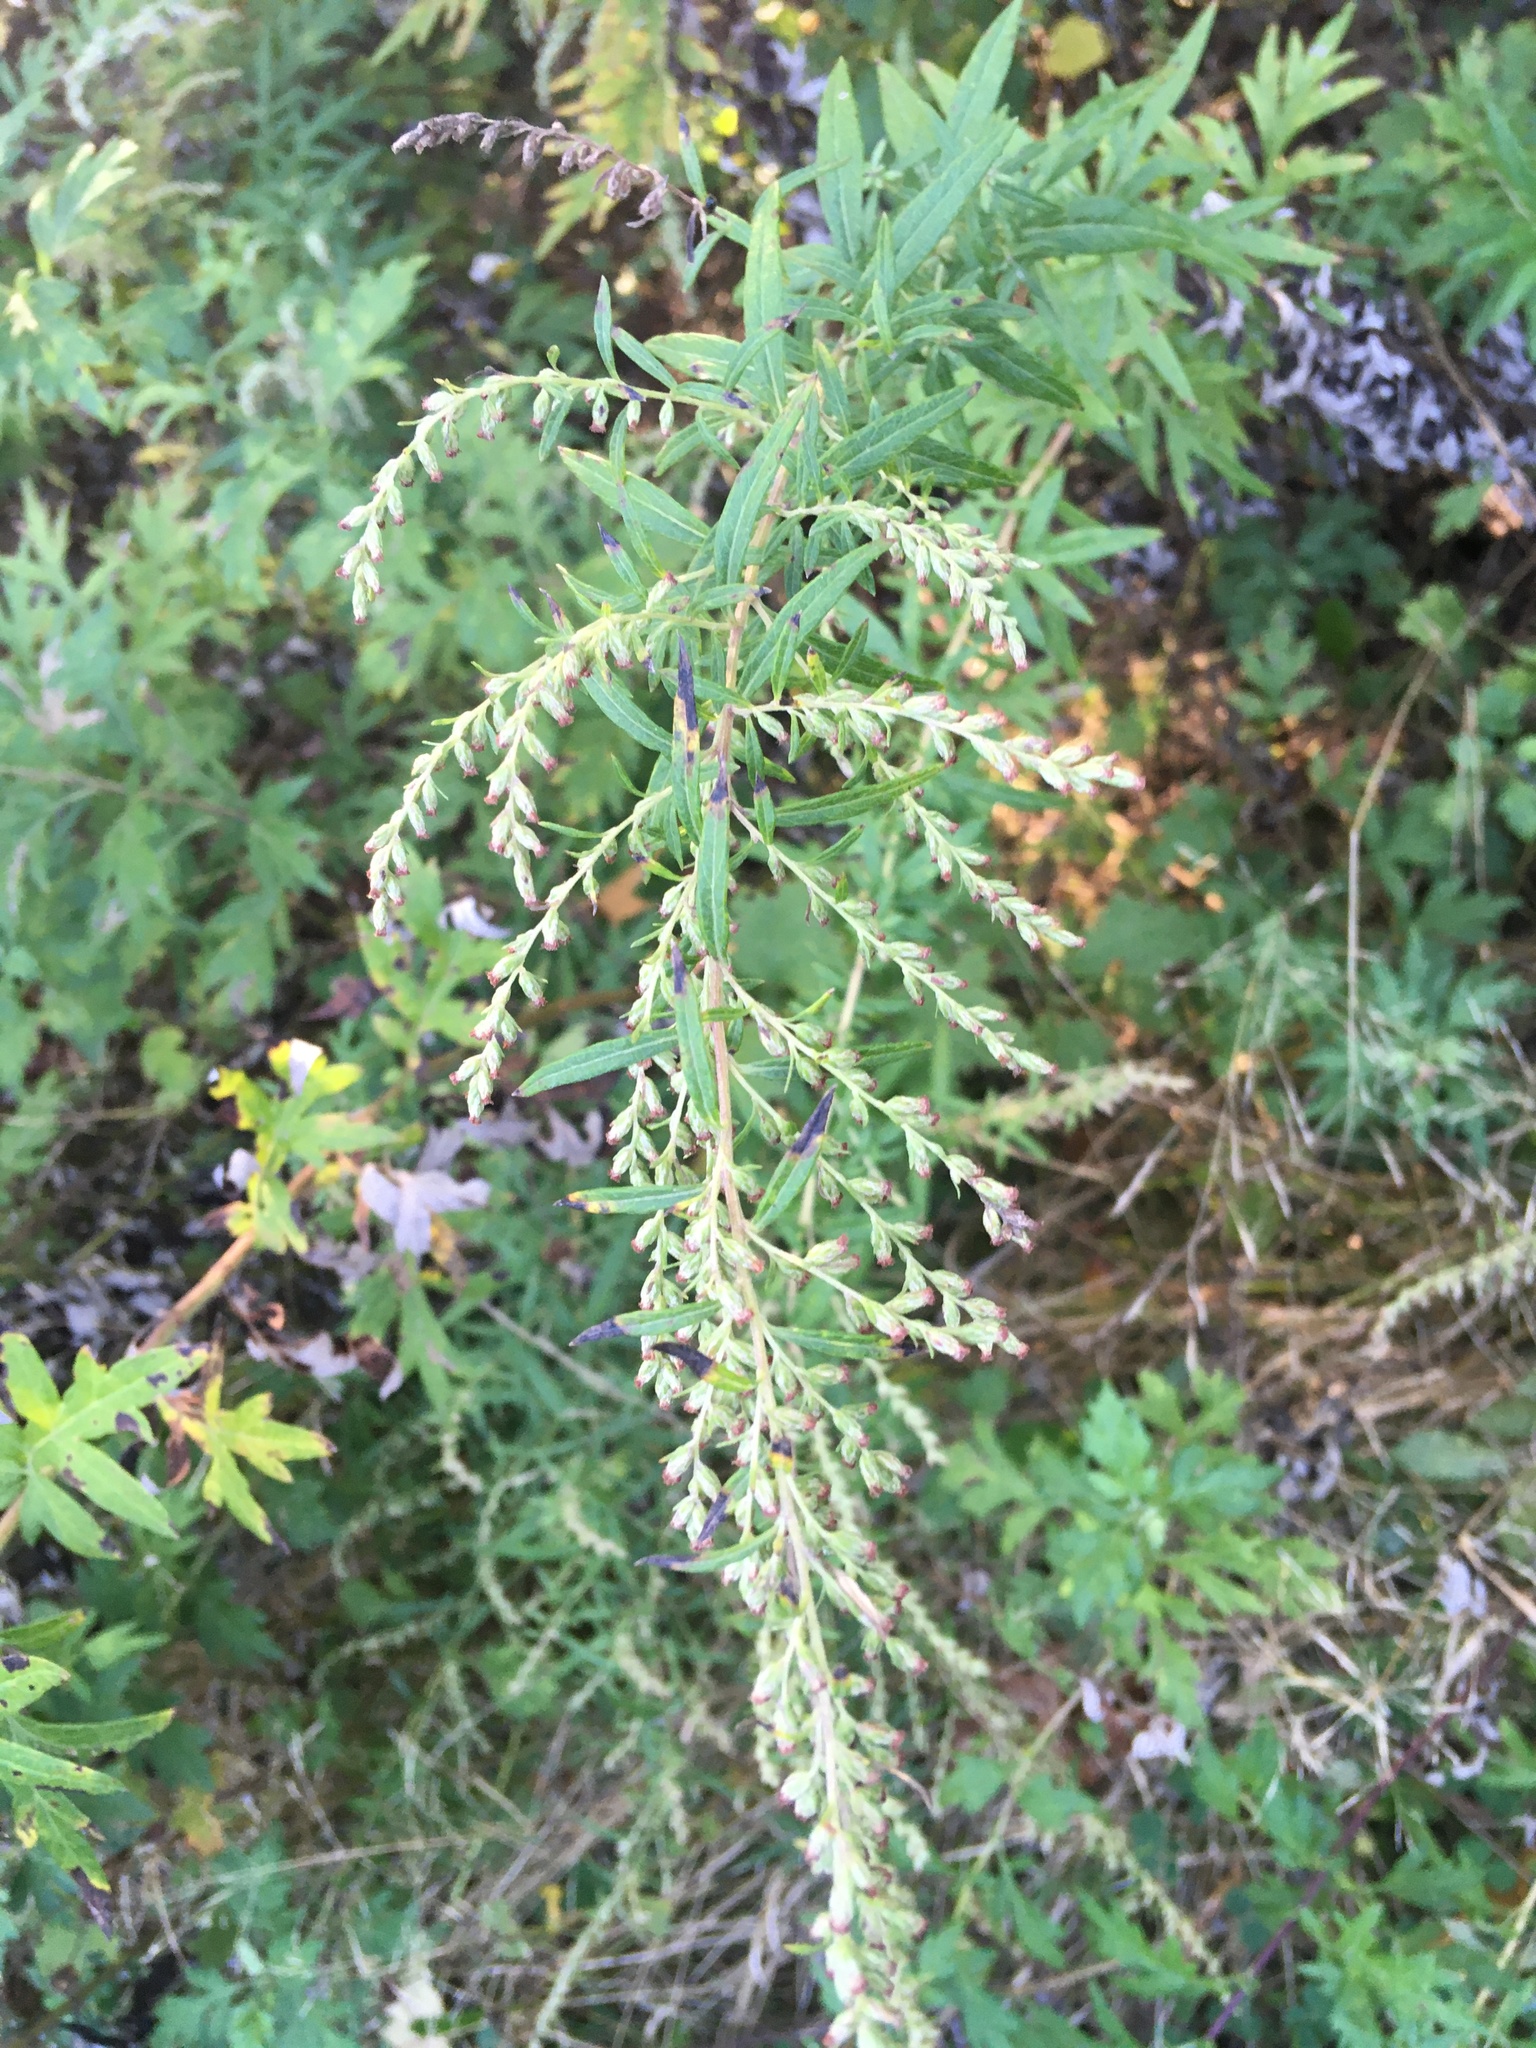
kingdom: Plantae
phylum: Tracheophyta
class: Magnoliopsida
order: Asterales
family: Asteraceae
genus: Artemisia
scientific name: Artemisia vulgaris
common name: Mugwort
